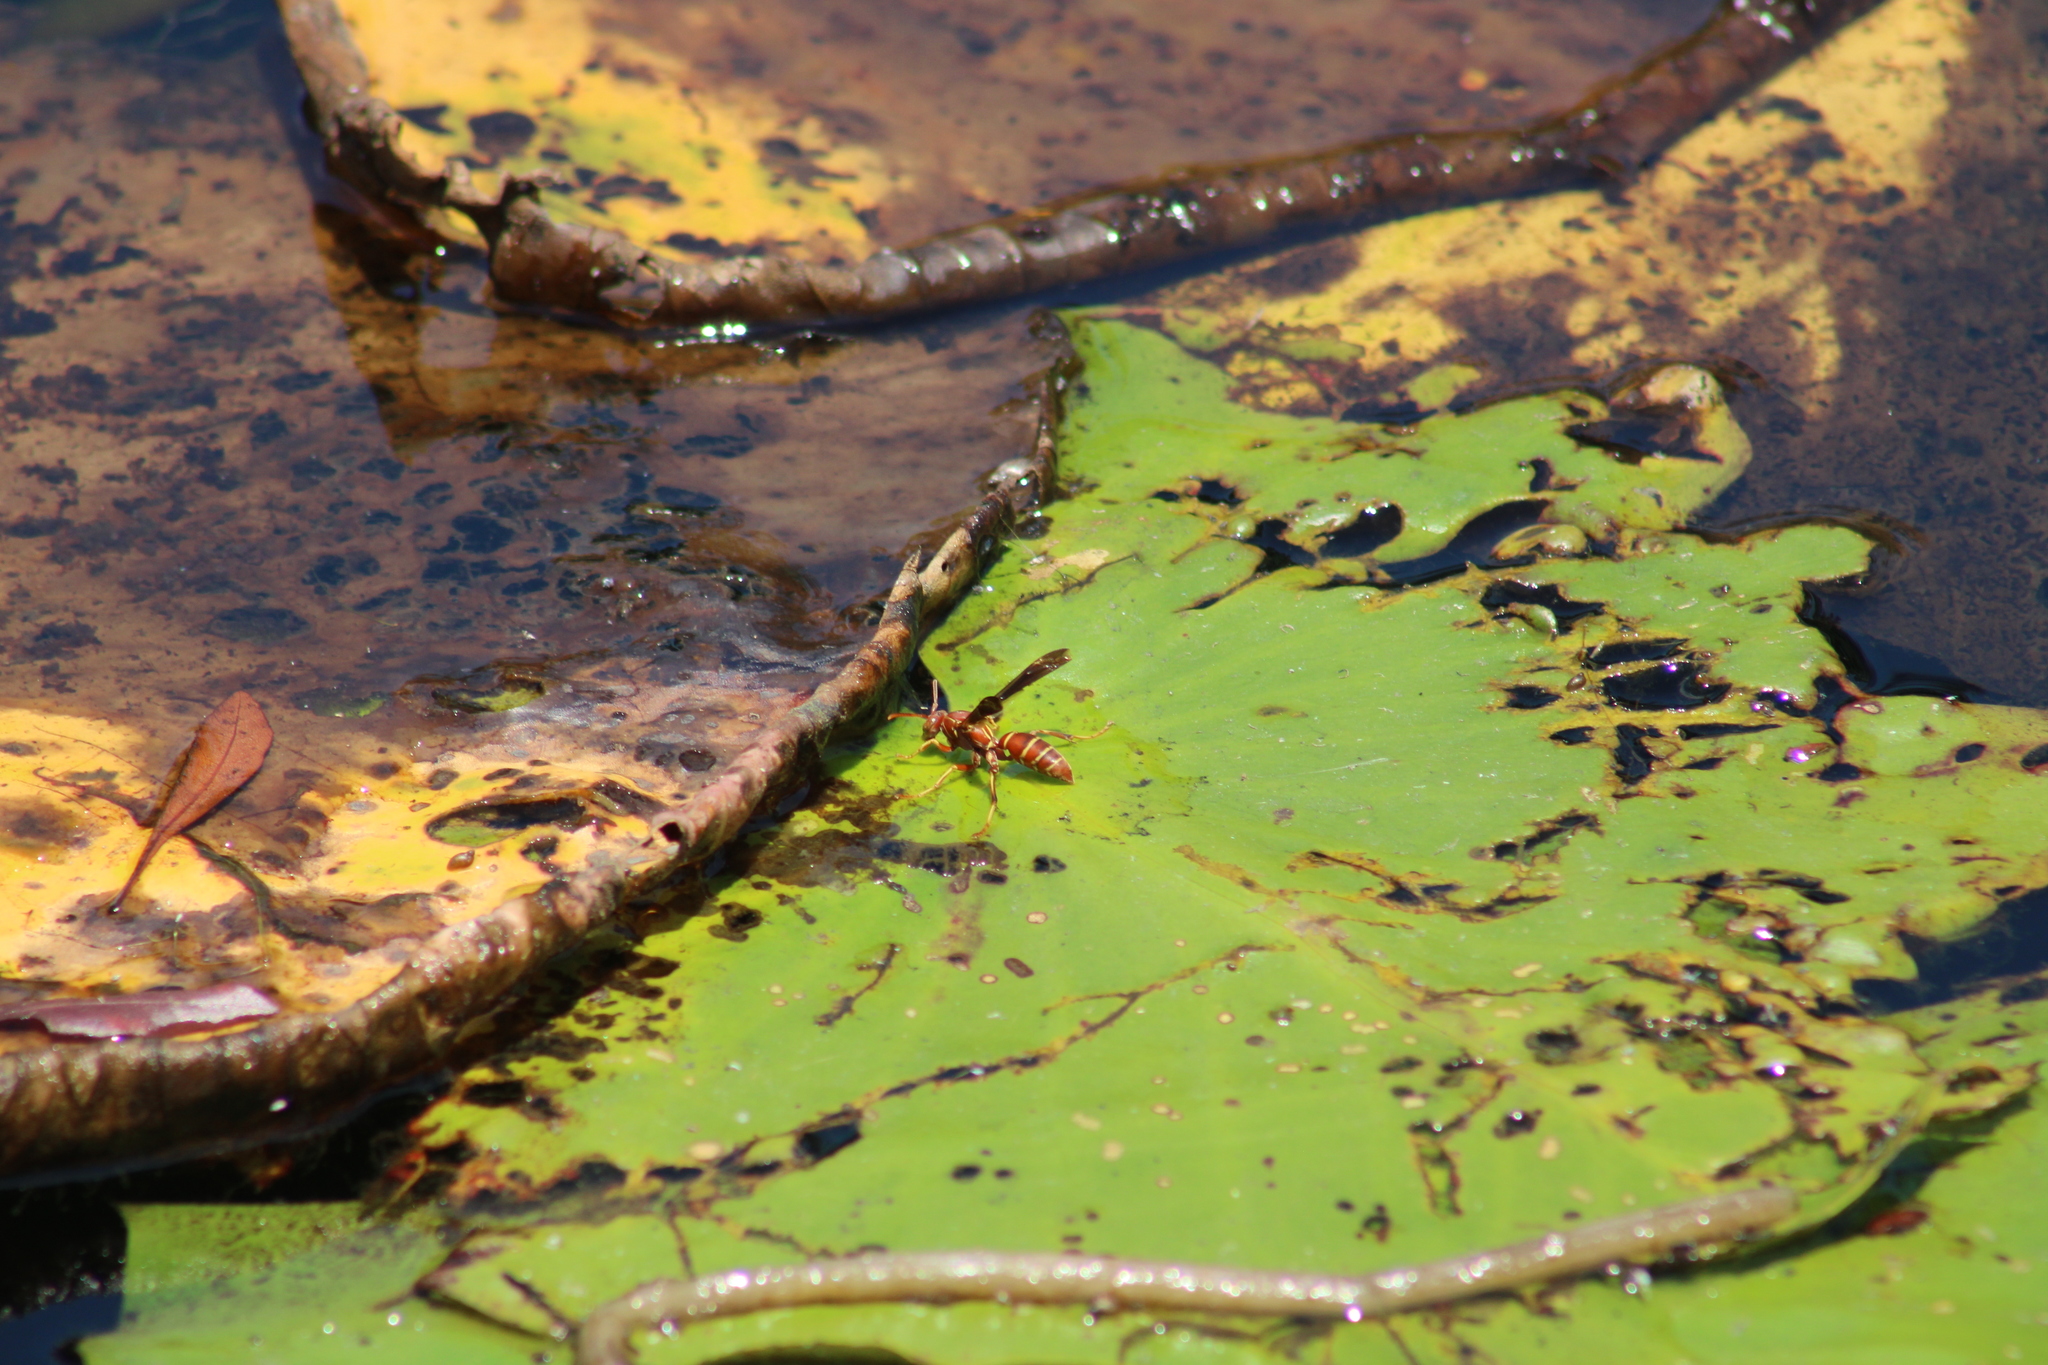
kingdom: Animalia
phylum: Arthropoda
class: Insecta
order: Hymenoptera
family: Eumenidae
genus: Polistes
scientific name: Polistes bellicosus
